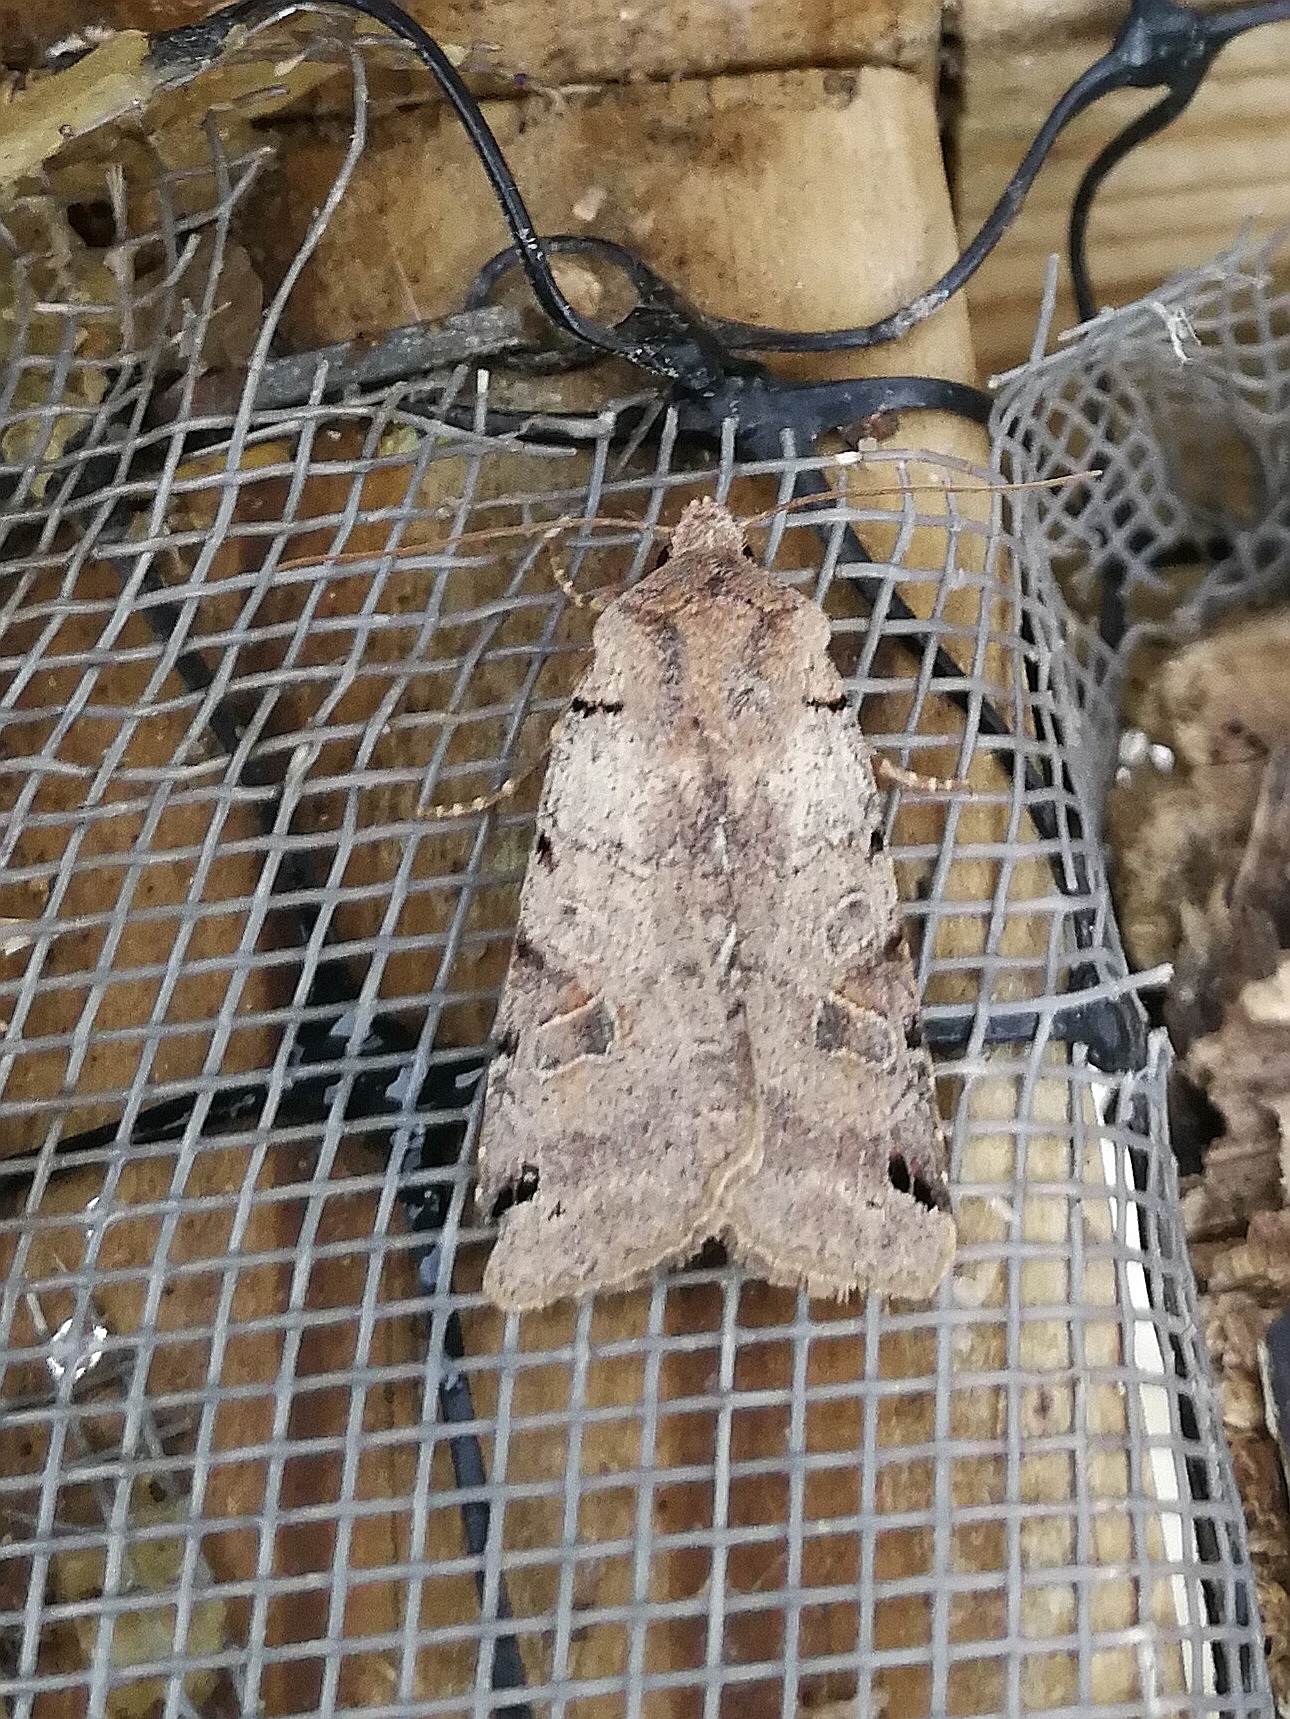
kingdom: Animalia
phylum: Arthropoda
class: Insecta
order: Lepidoptera
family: Noctuidae
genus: Agrochola
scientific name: Agrochola litura
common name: Brown-spot pinion
